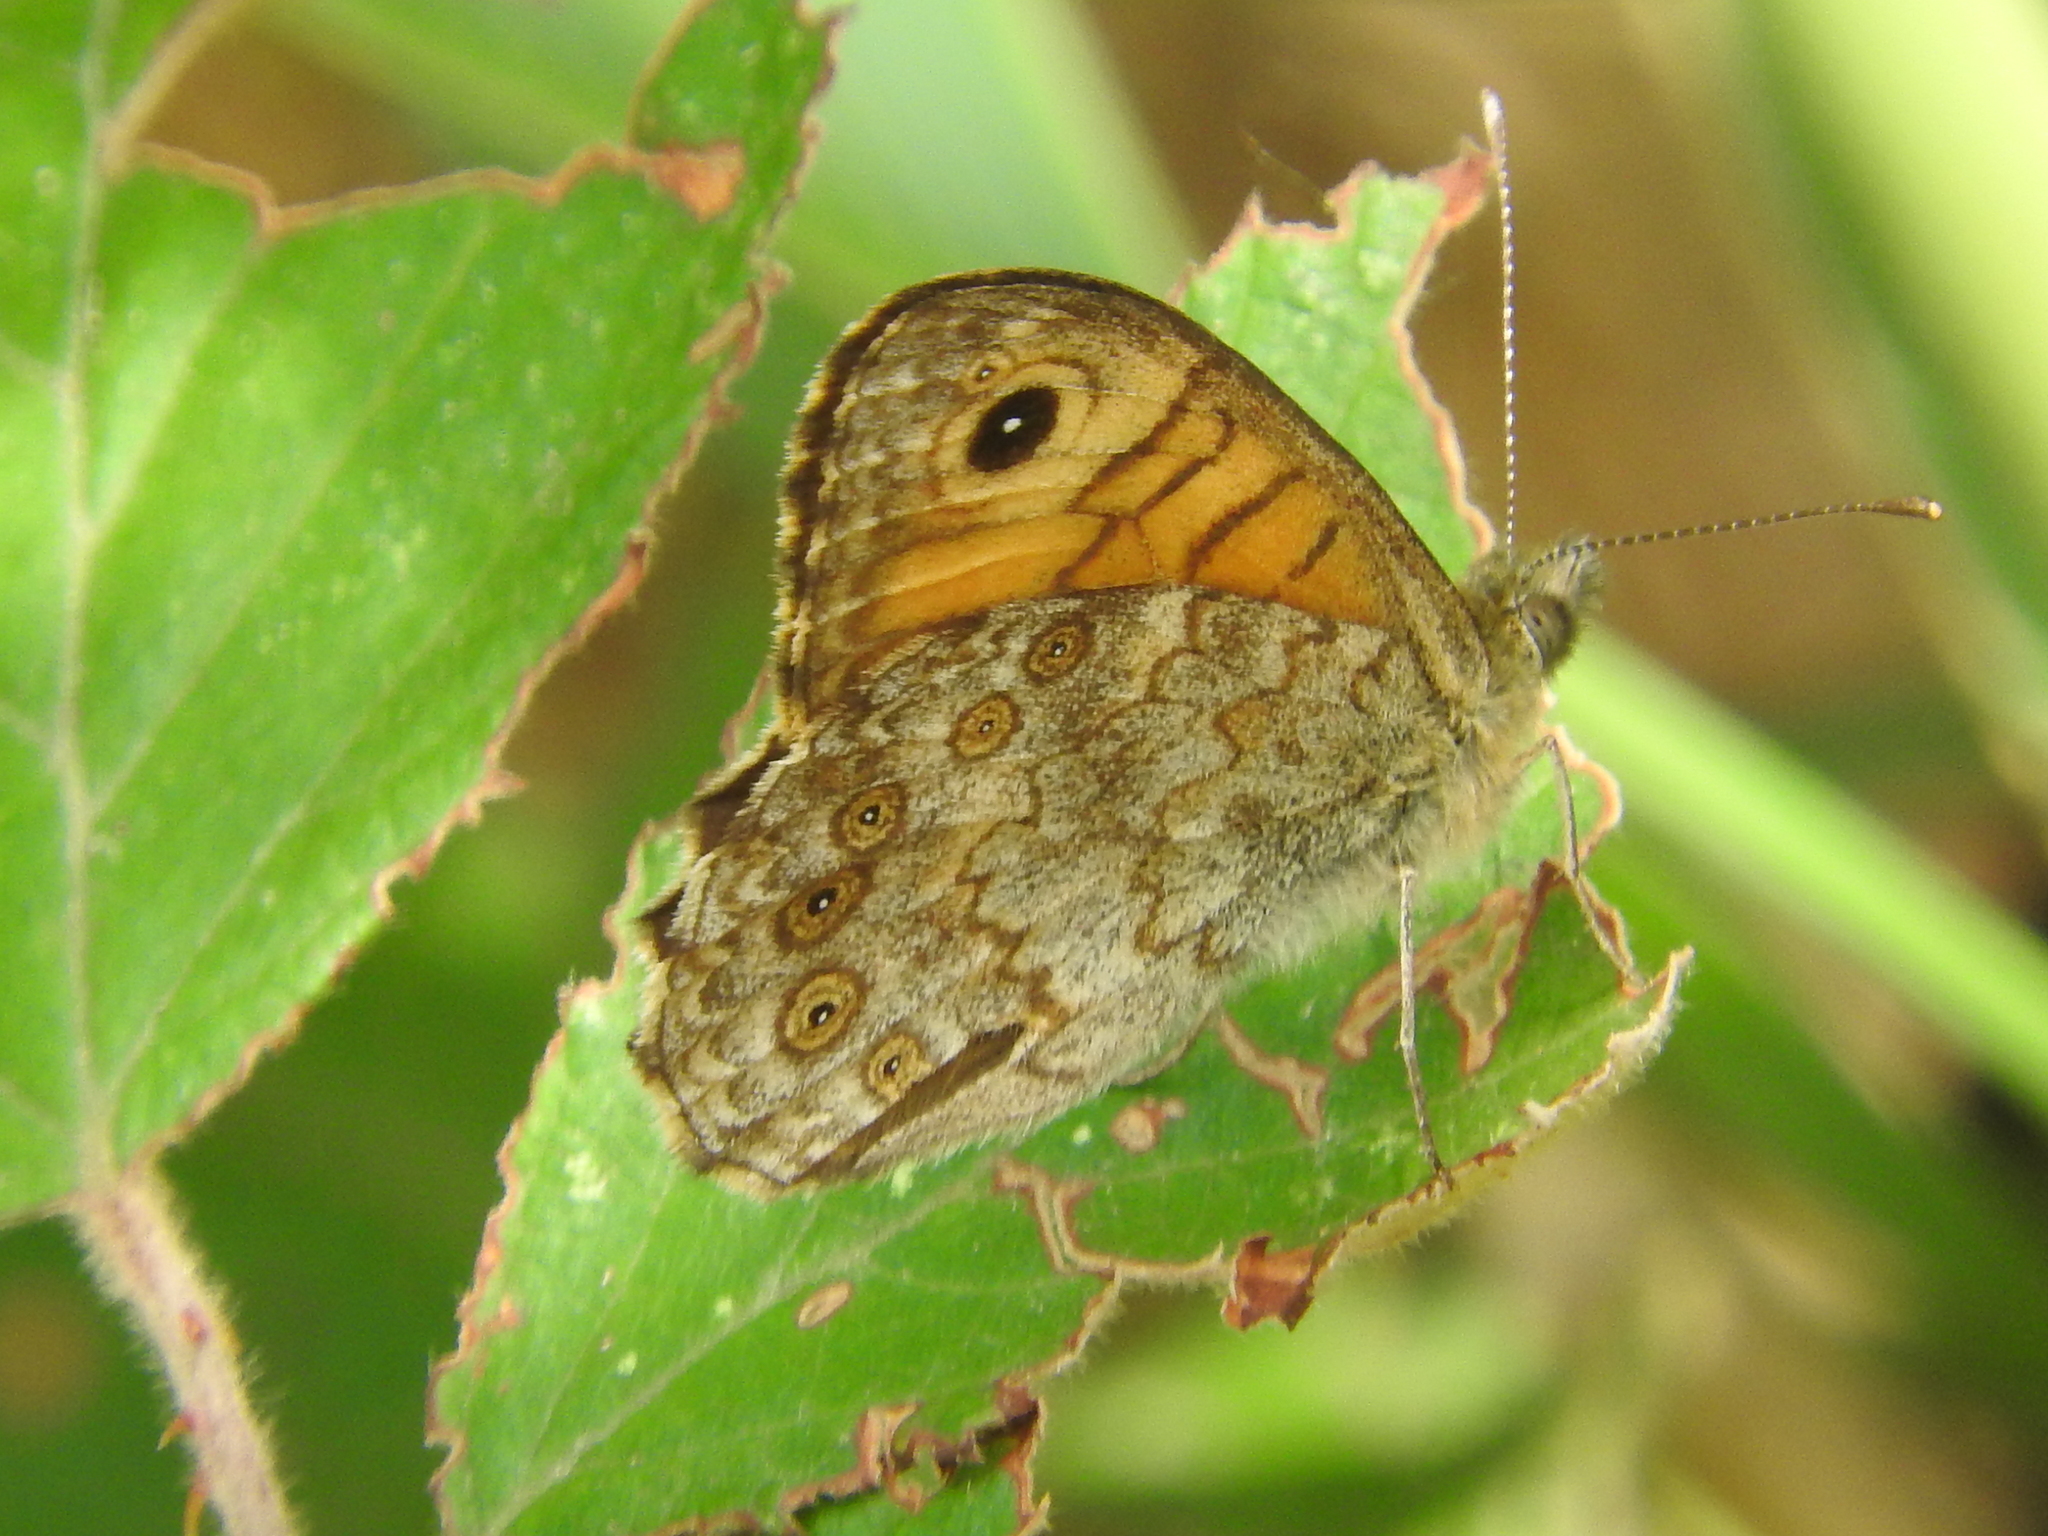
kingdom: Animalia
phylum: Arthropoda
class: Insecta
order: Lepidoptera
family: Nymphalidae
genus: Pararge
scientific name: Pararge Lasiommata megera
